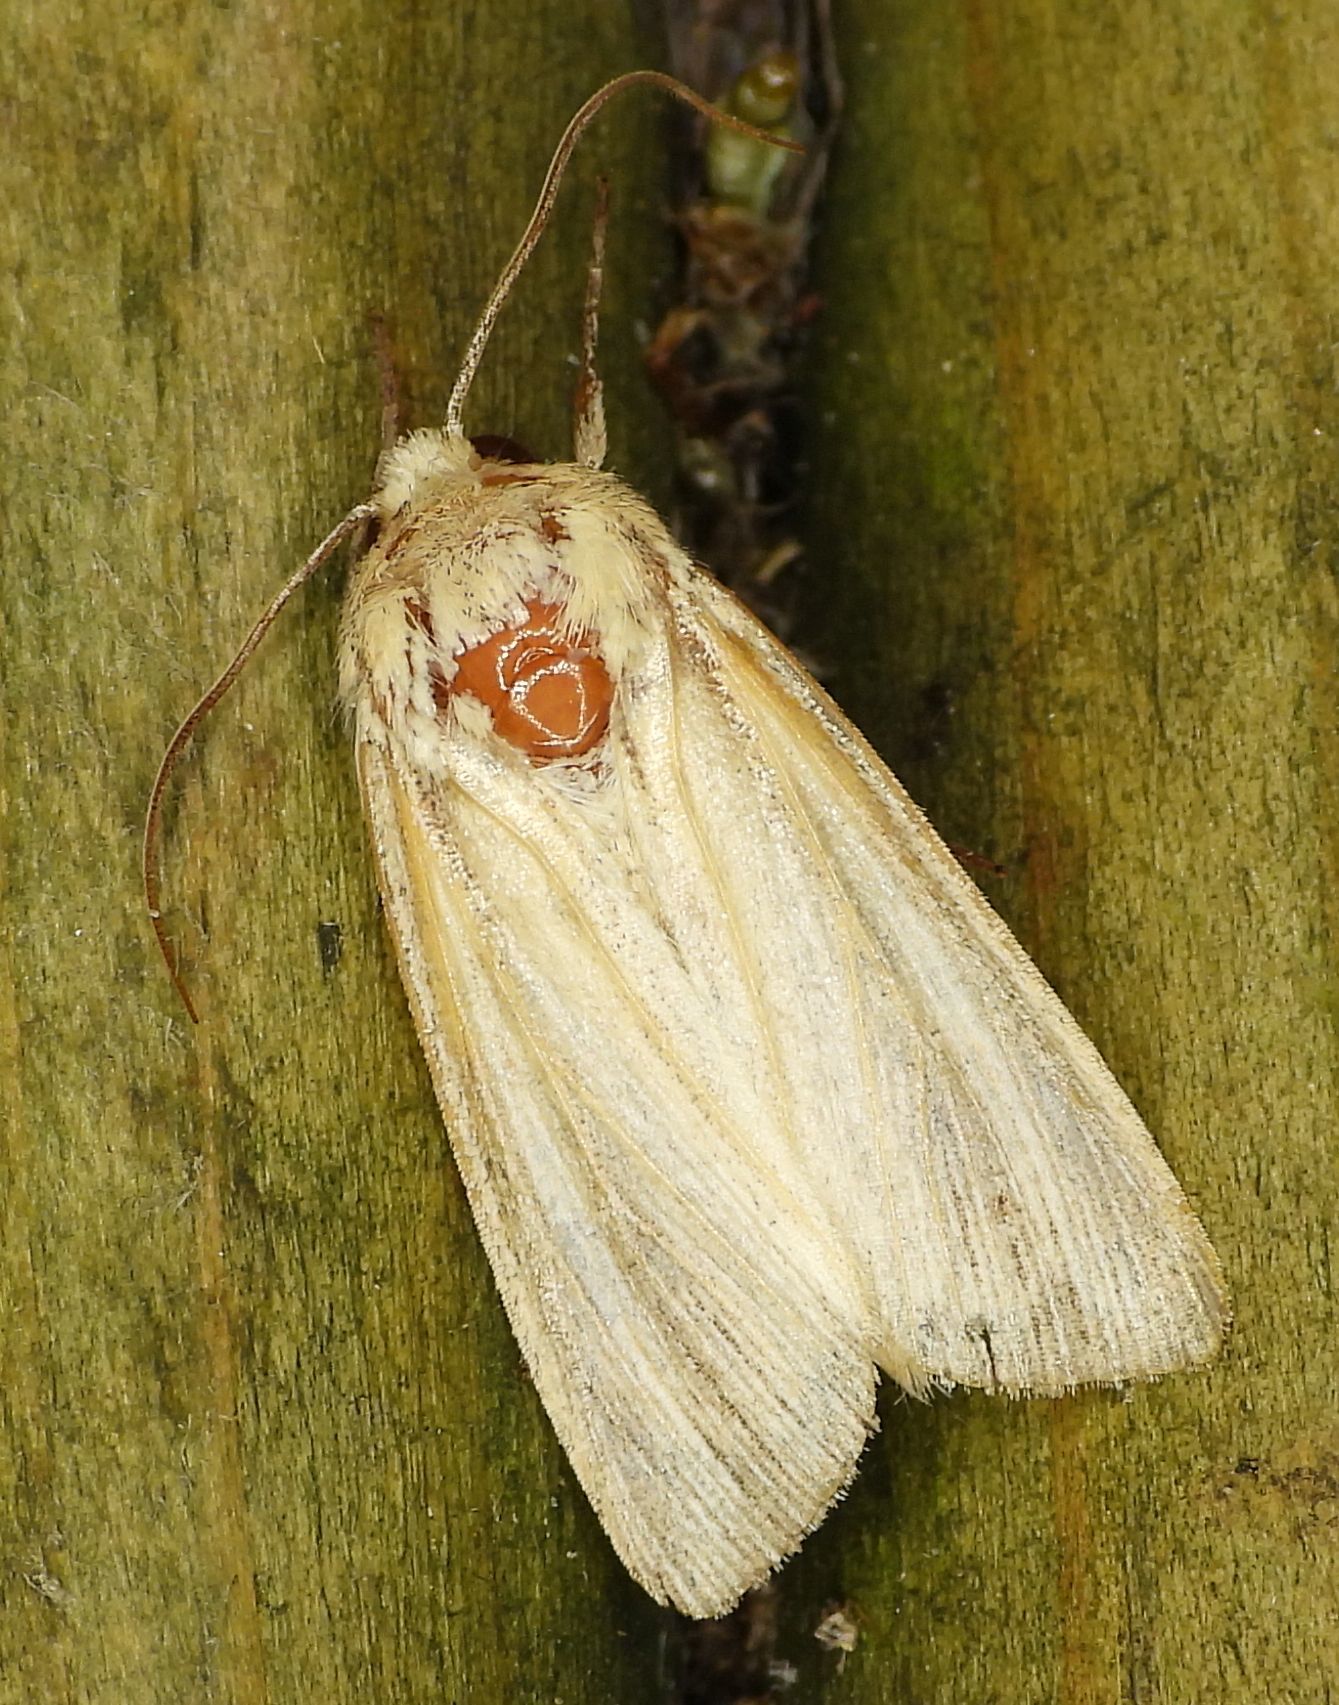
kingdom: Animalia
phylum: Arthropoda
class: Insecta
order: Lepidoptera
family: Noctuidae
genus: Mythimna
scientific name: Mythimna oxygala
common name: Lesser wainscot
